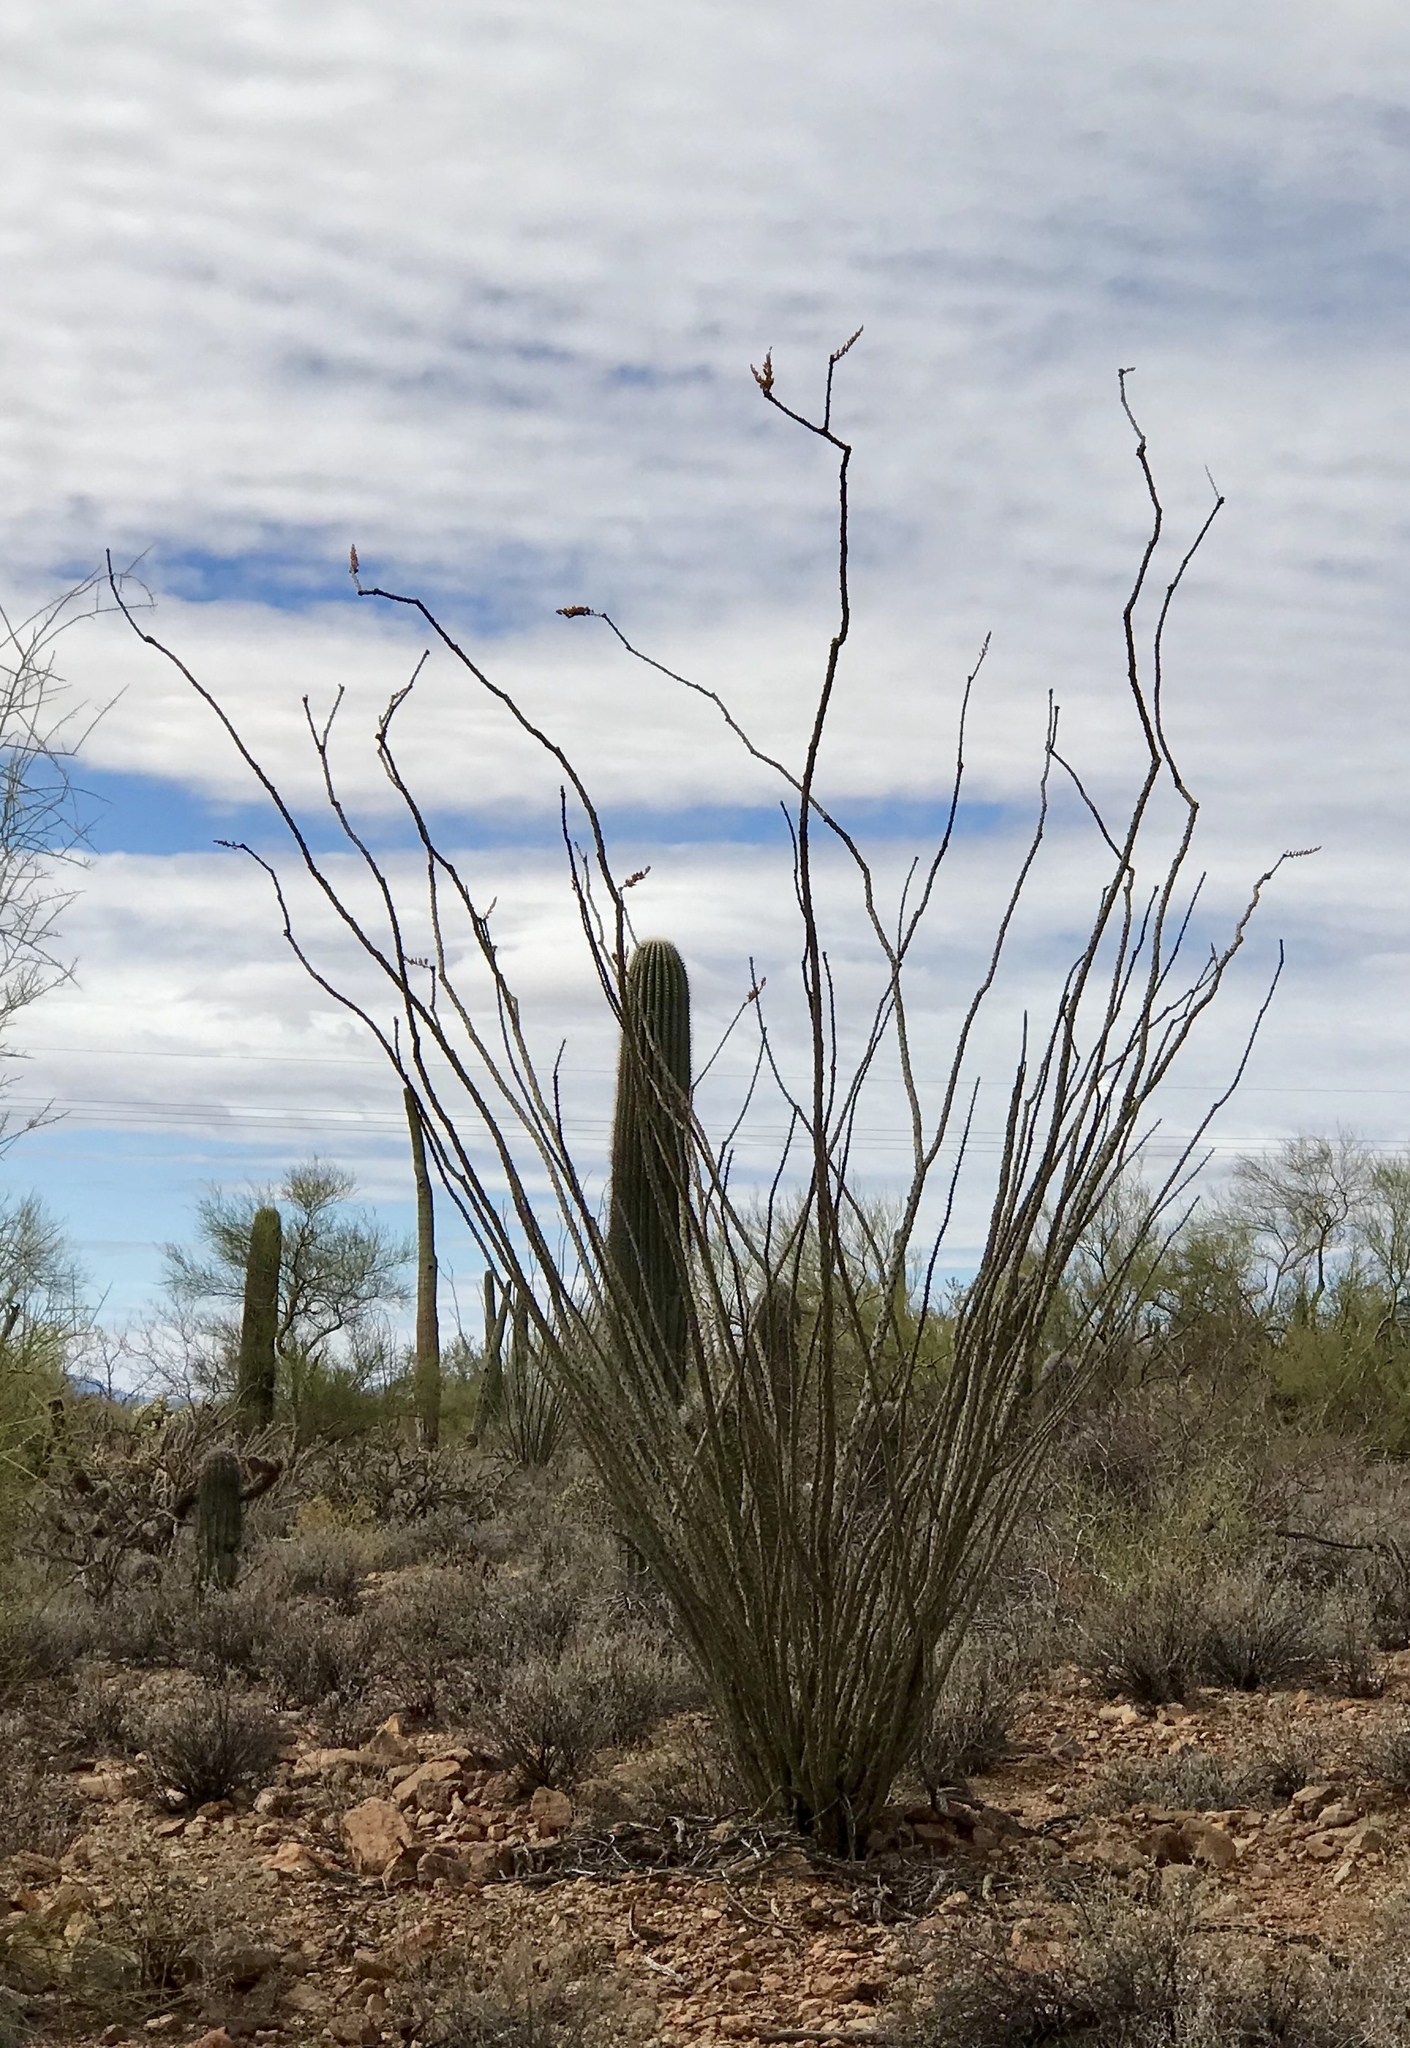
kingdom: Plantae
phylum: Tracheophyta
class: Magnoliopsida
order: Ericales
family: Fouquieriaceae
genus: Fouquieria
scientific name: Fouquieria splendens
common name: Vine-cactus
